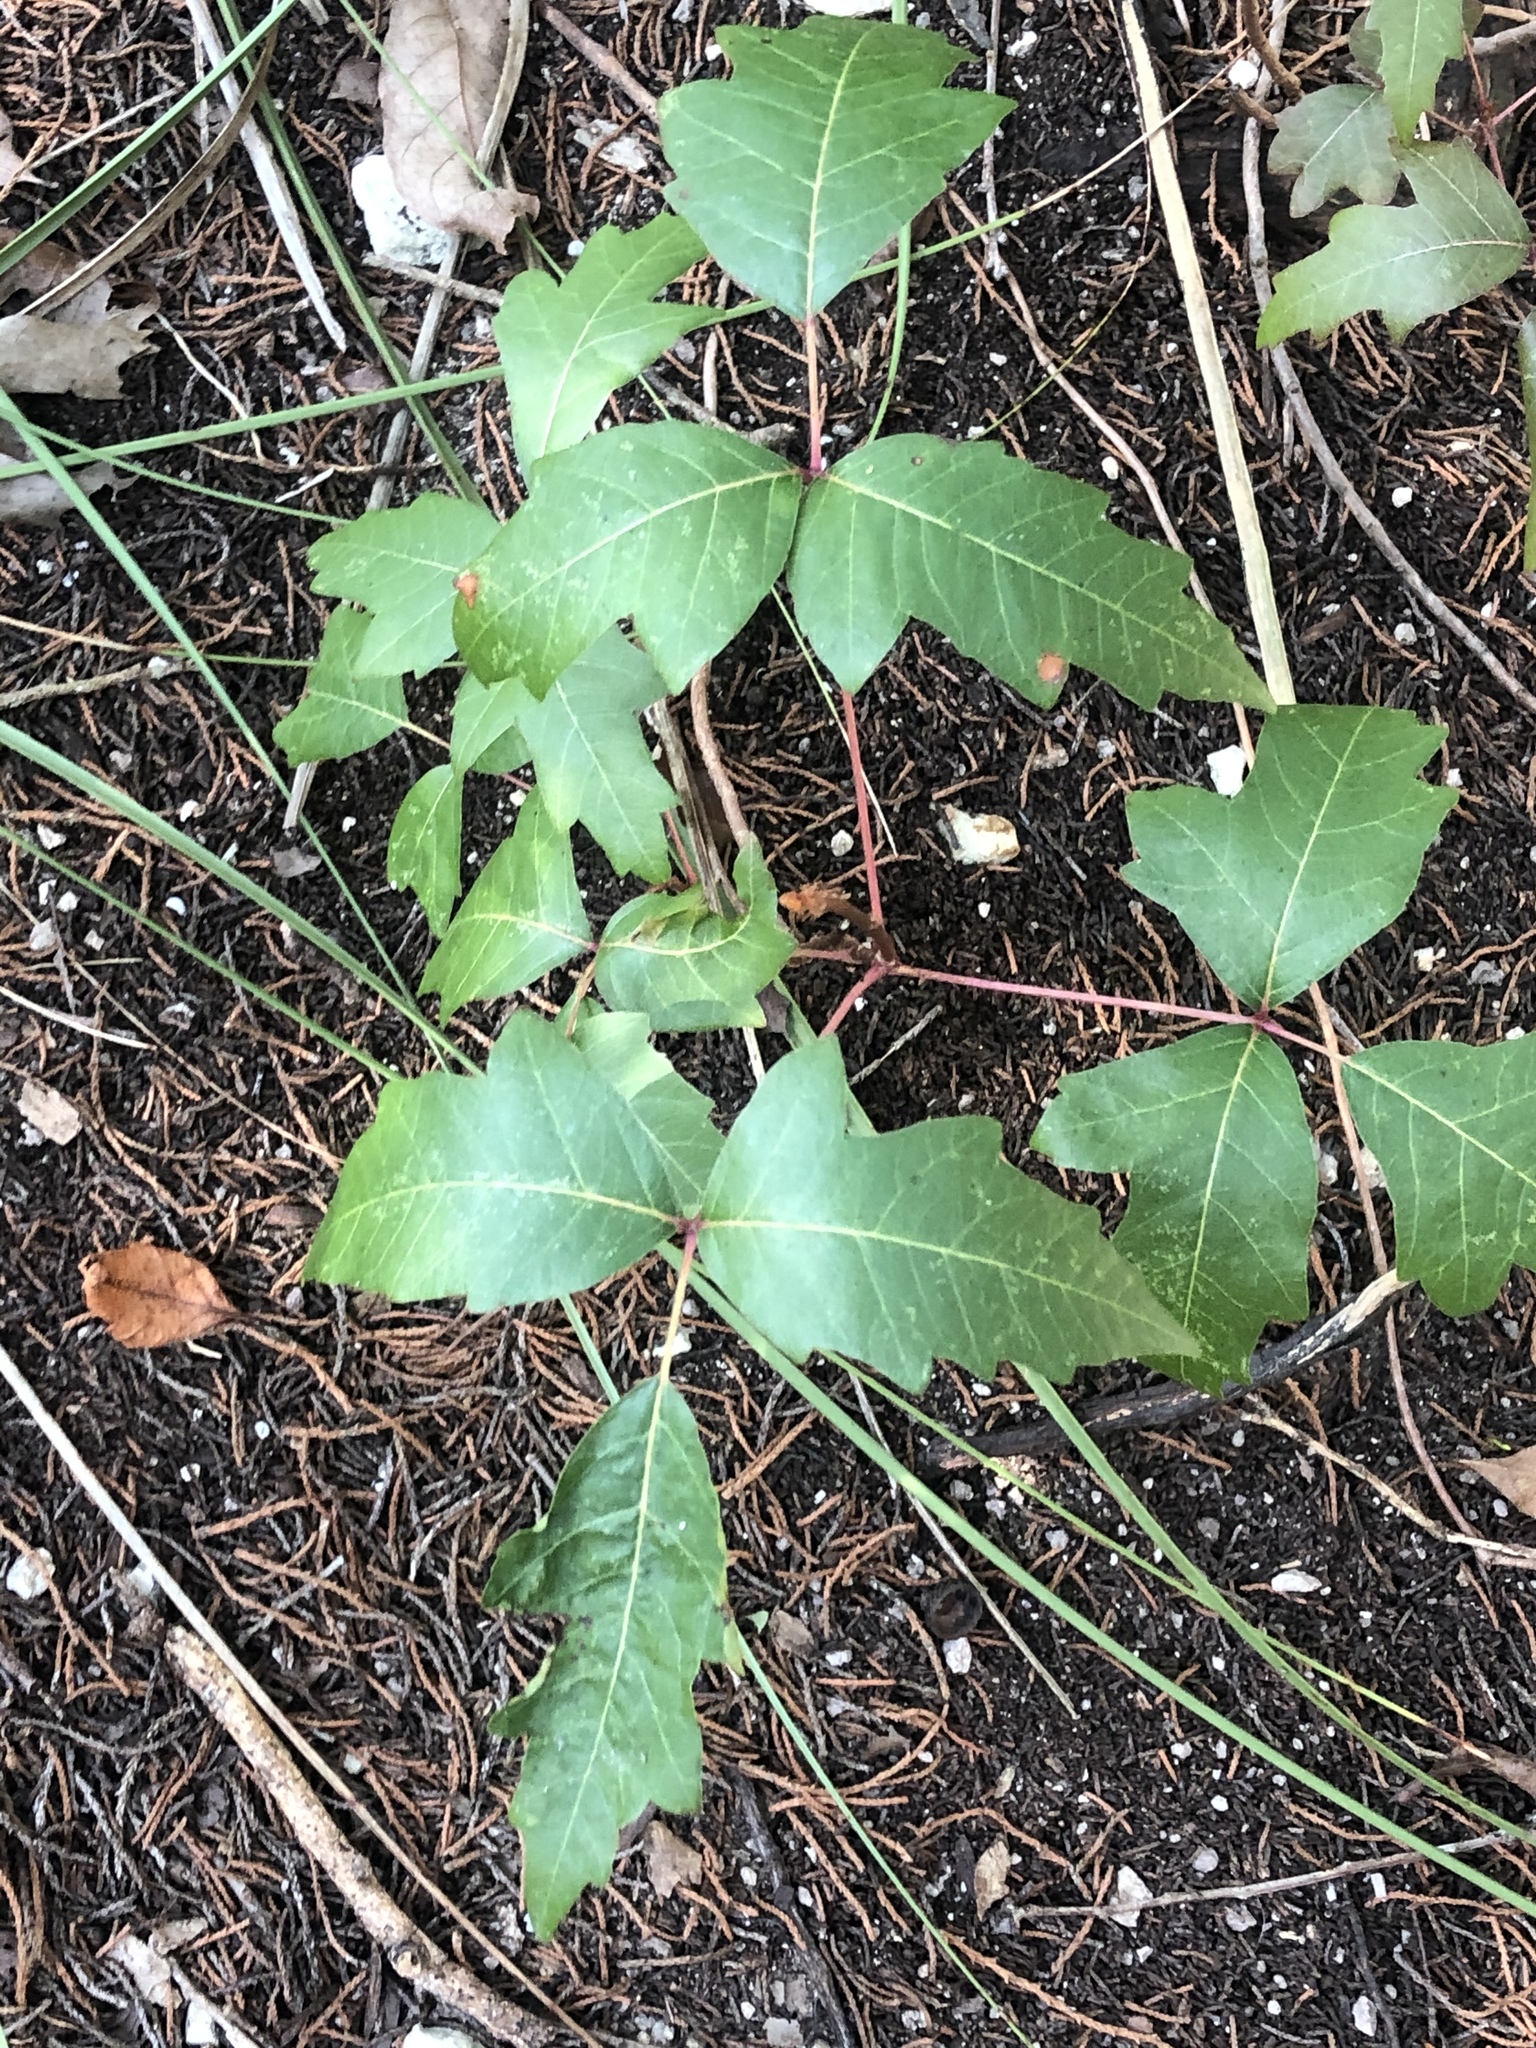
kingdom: Plantae
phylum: Tracheophyta
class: Magnoliopsida
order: Sapindales
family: Anacardiaceae
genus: Toxicodendron
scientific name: Toxicodendron radicans
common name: Poison ivy
